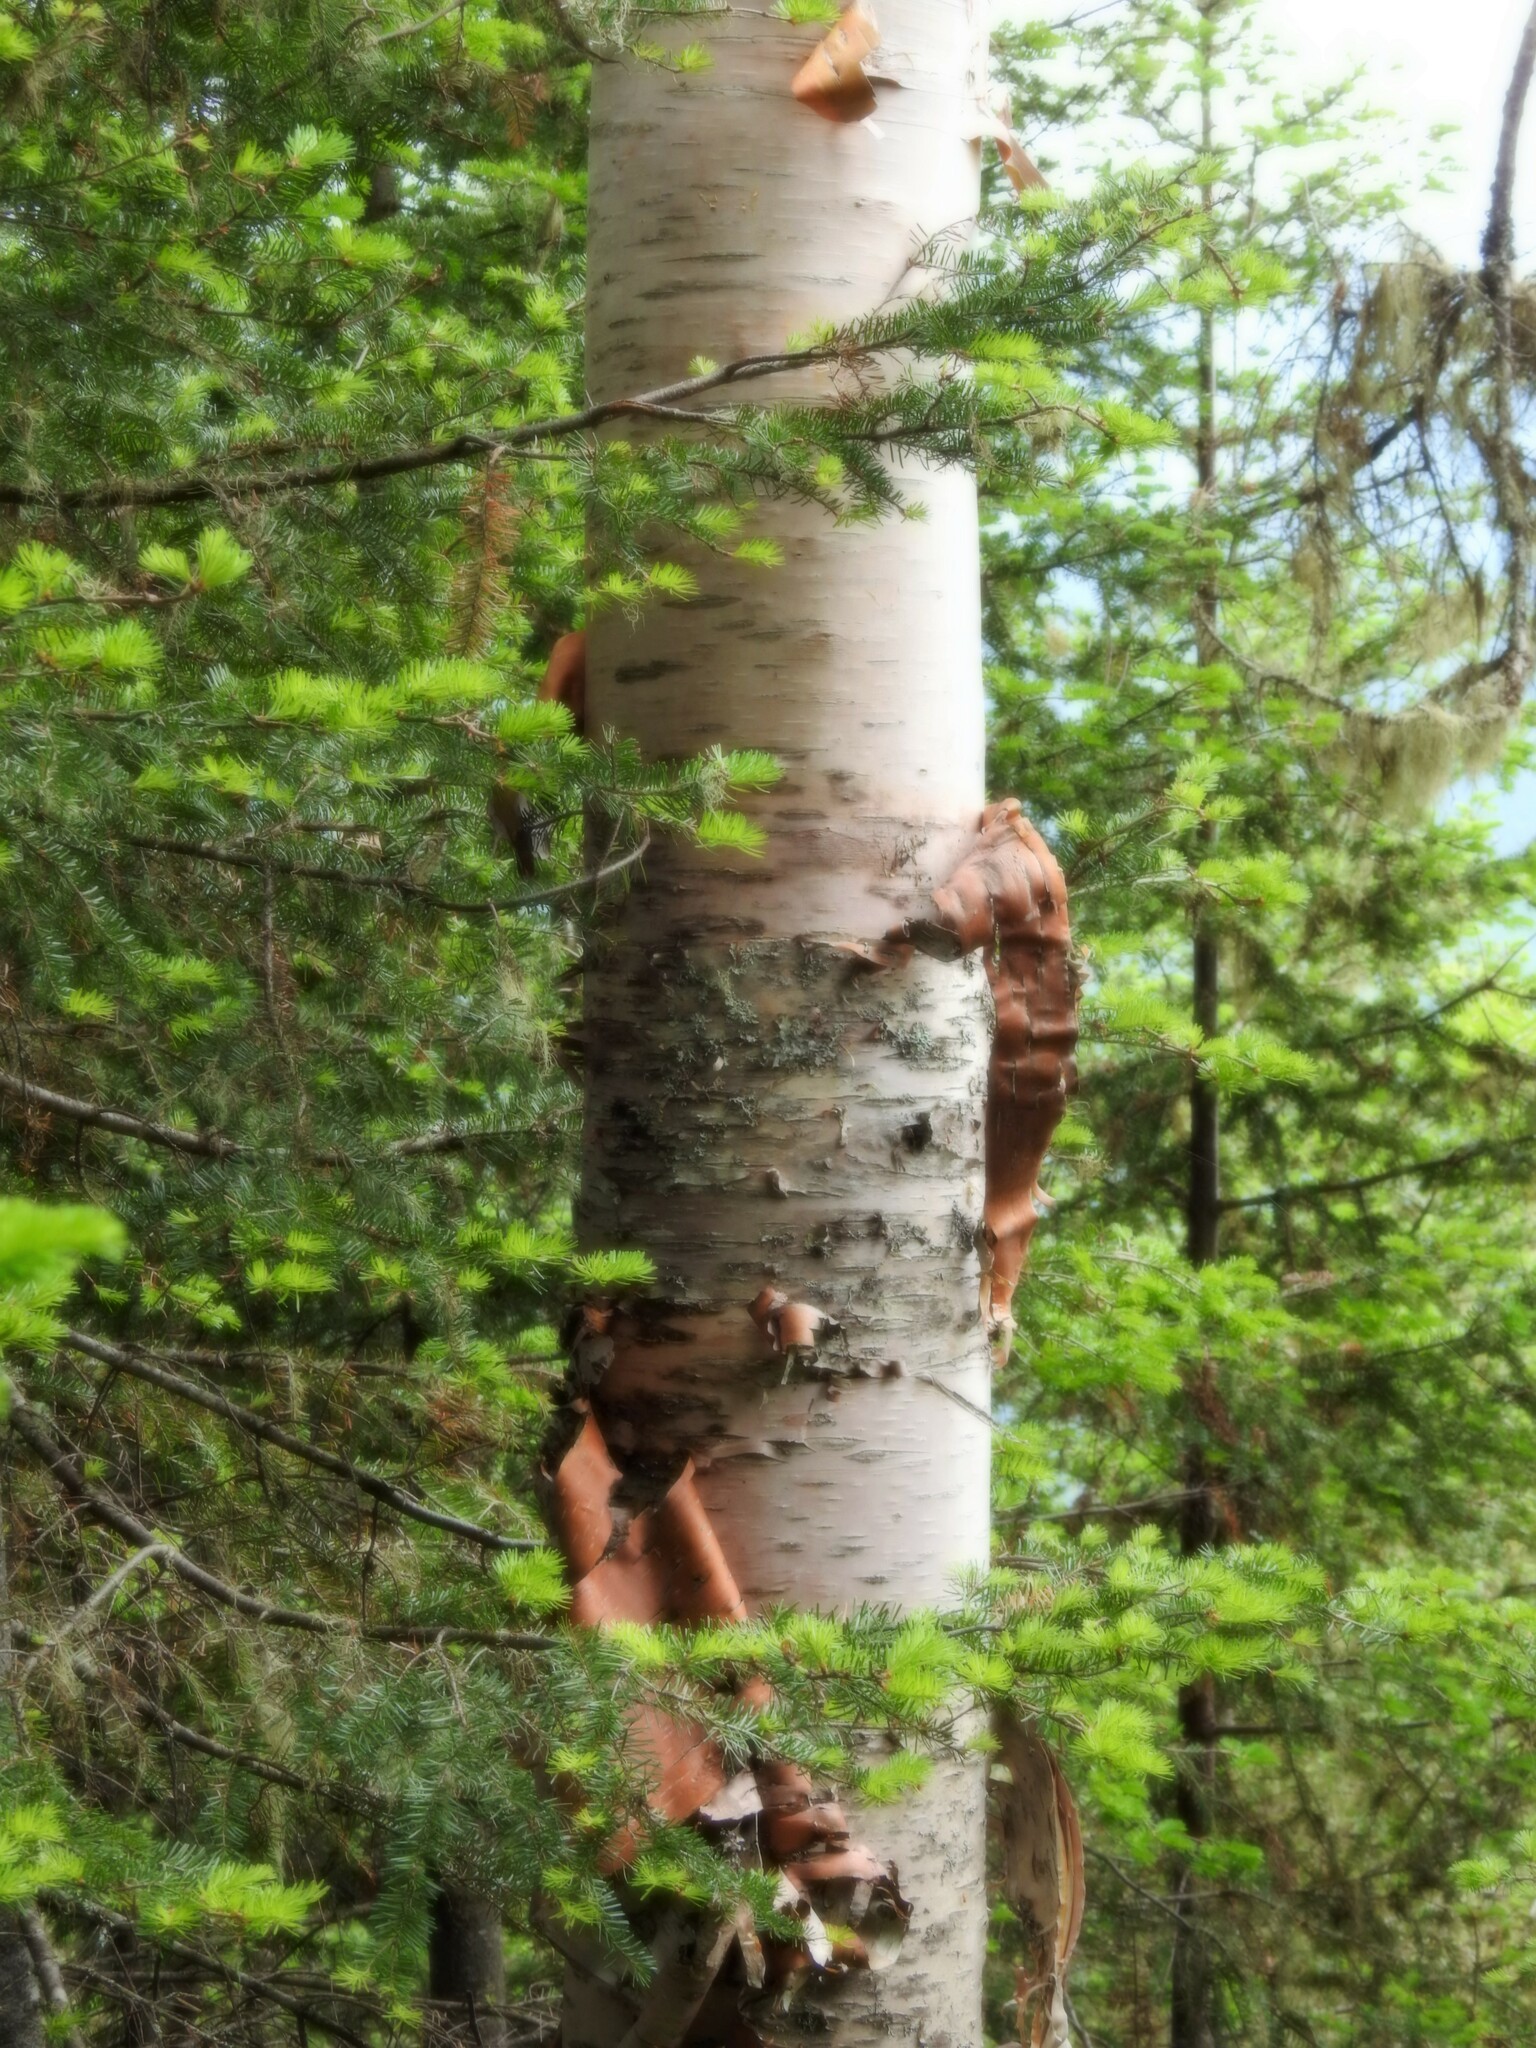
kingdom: Plantae
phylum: Tracheophyta
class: Magnoliopsida
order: Fagales
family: Betulaceae
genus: Betula
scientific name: Betula papyrifera
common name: Paper birch
